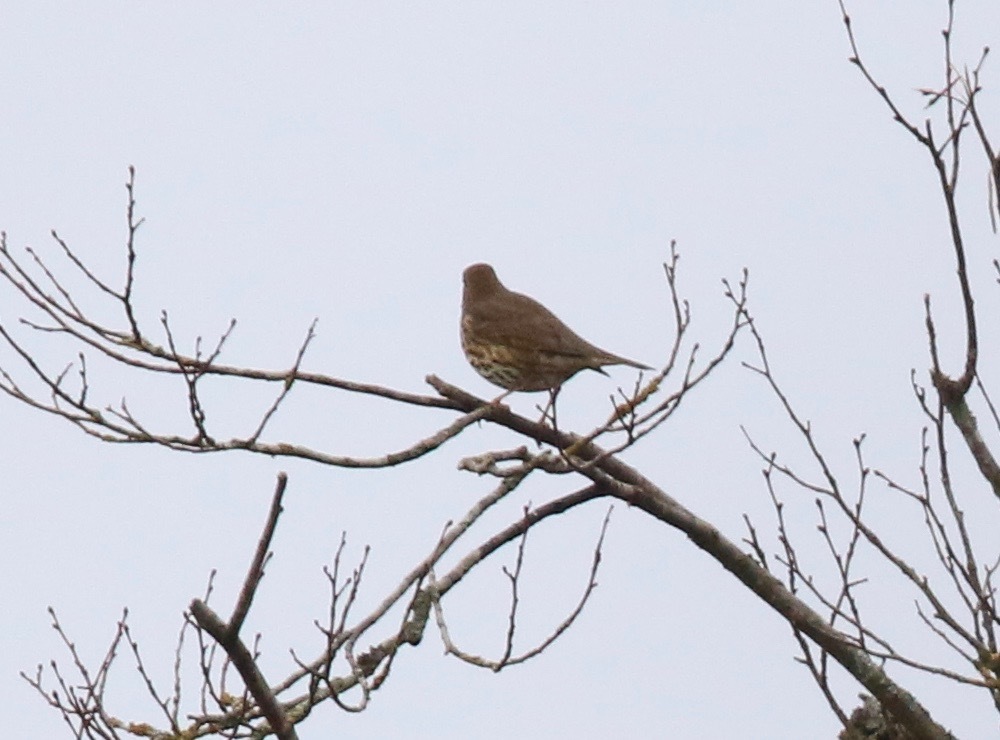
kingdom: Animalia
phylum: Chordata
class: Aves
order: Passeriformes
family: Turdidae
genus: Turdus
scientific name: Turdus philomelos
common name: Song thrush
